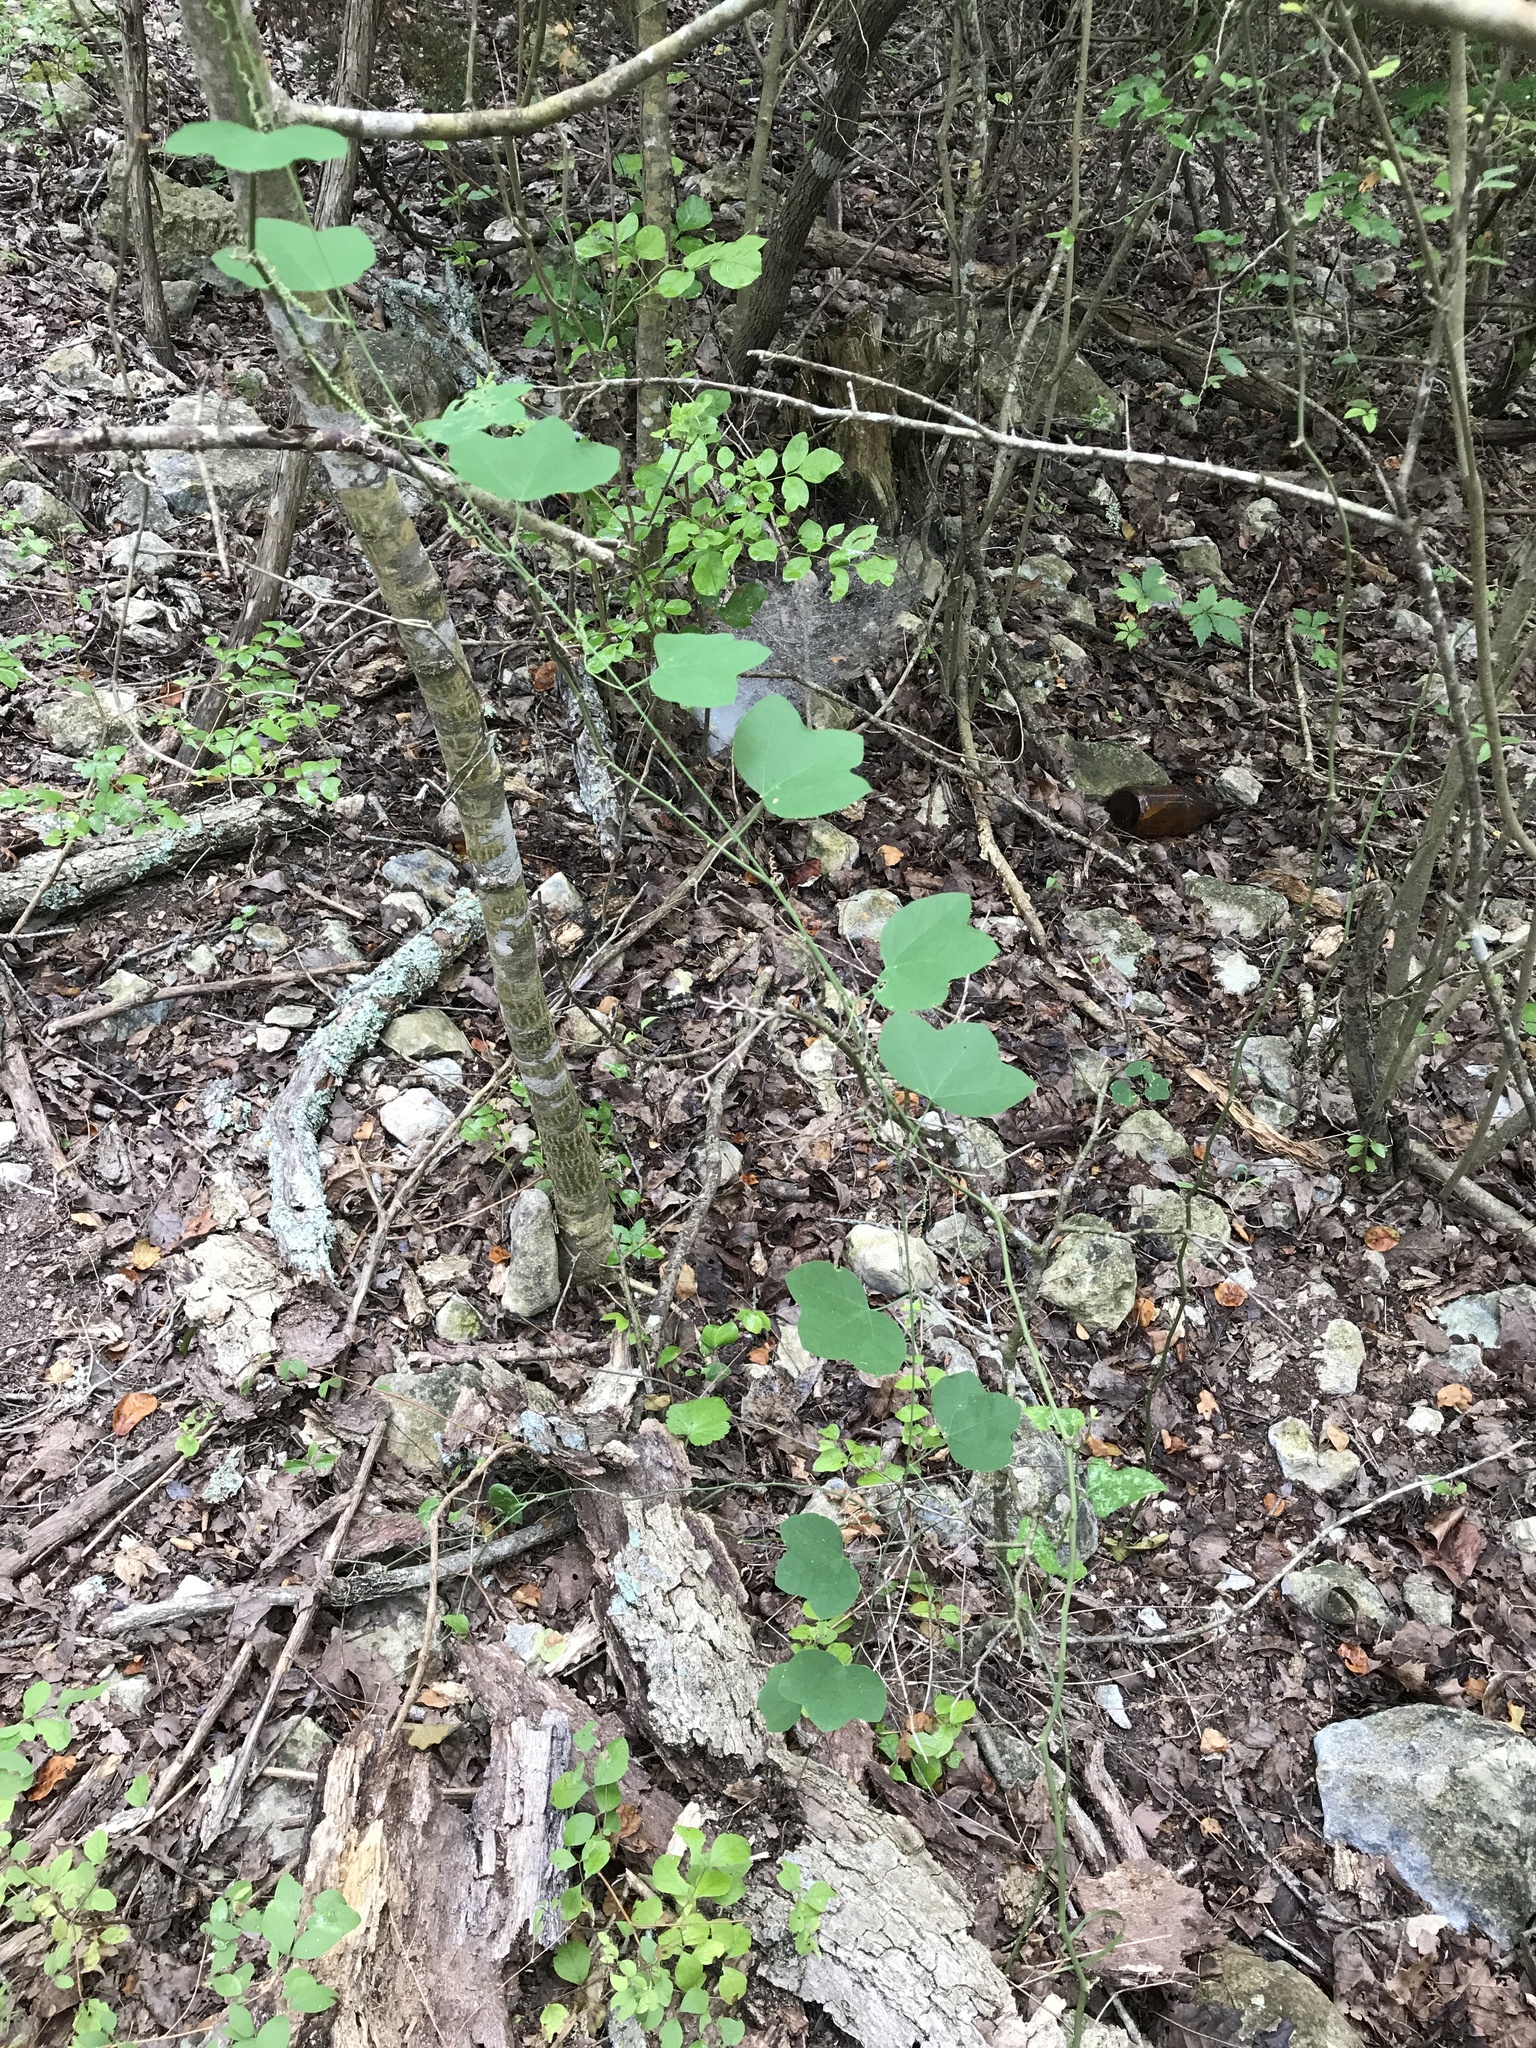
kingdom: Plantae
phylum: Tracheophyta
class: Magnoliopsida
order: Malpighiales
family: Passifloraceae
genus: Passiflora
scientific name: Passiflora lutea
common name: Yellow passionflower
